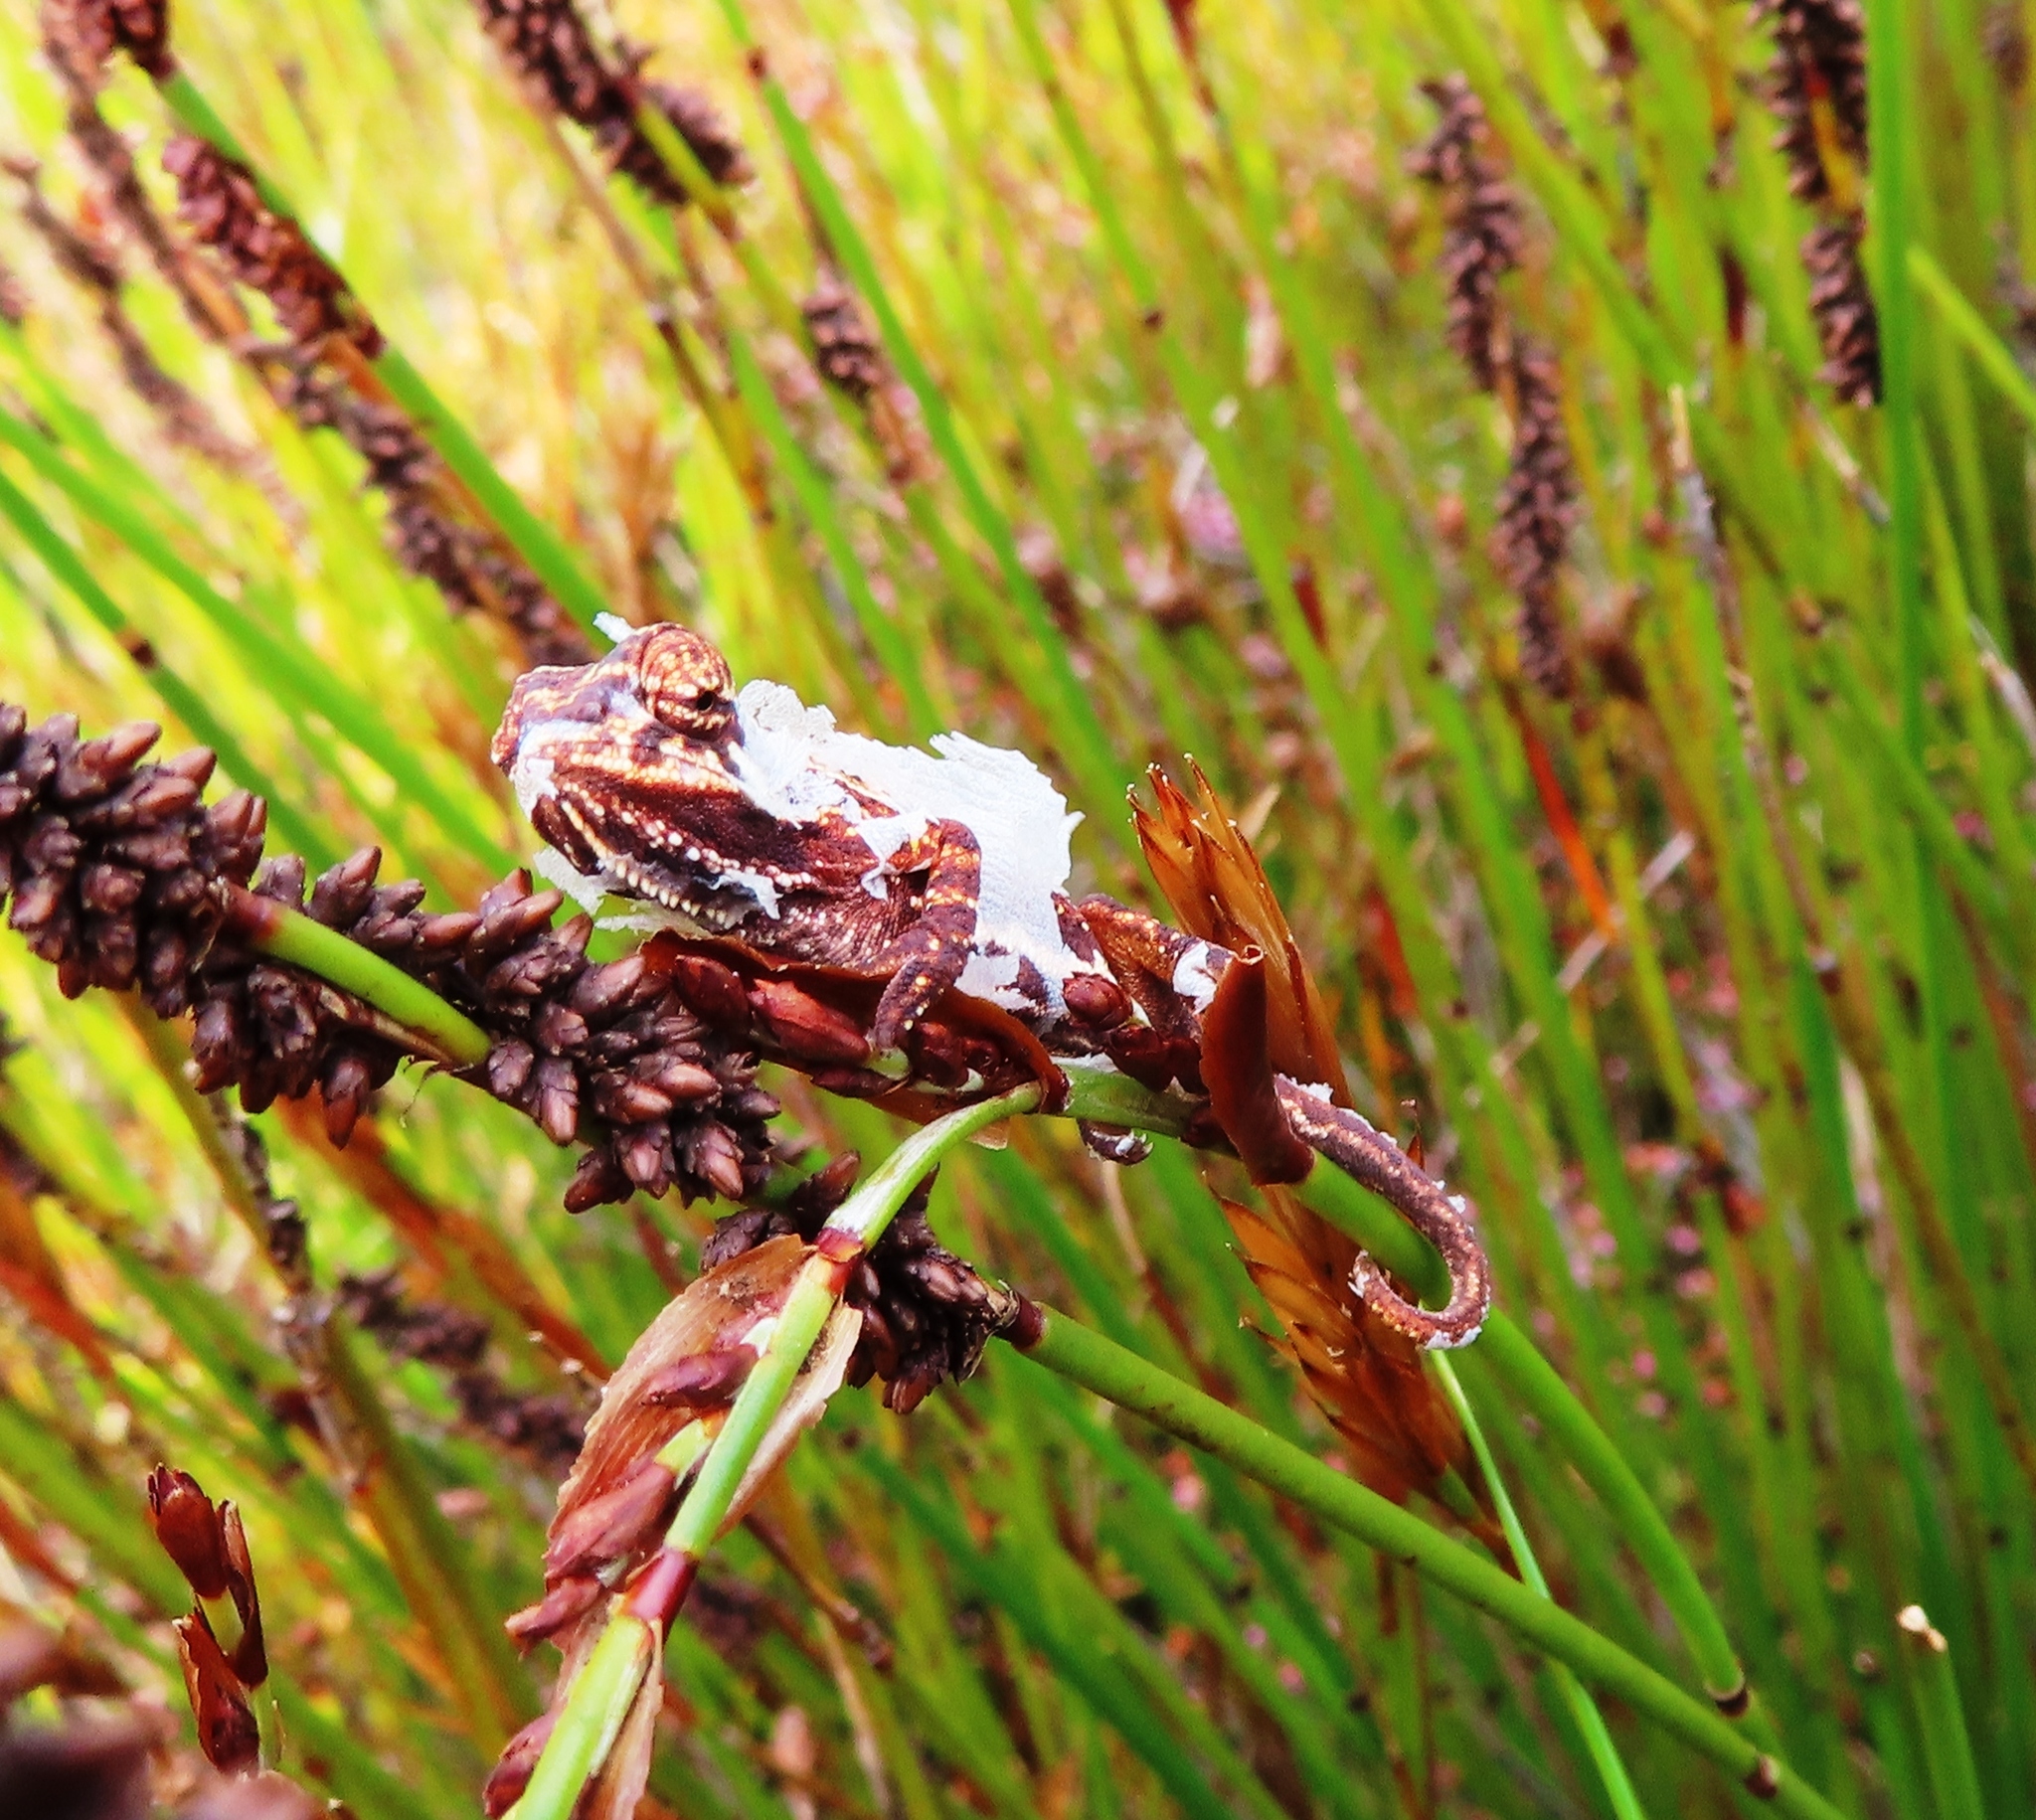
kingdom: Animalia
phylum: Chordata
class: Squamata
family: Chamaeleonidae
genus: Bradypodion
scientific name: Bradypodion pumilum
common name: Cape dwarf chameleon
